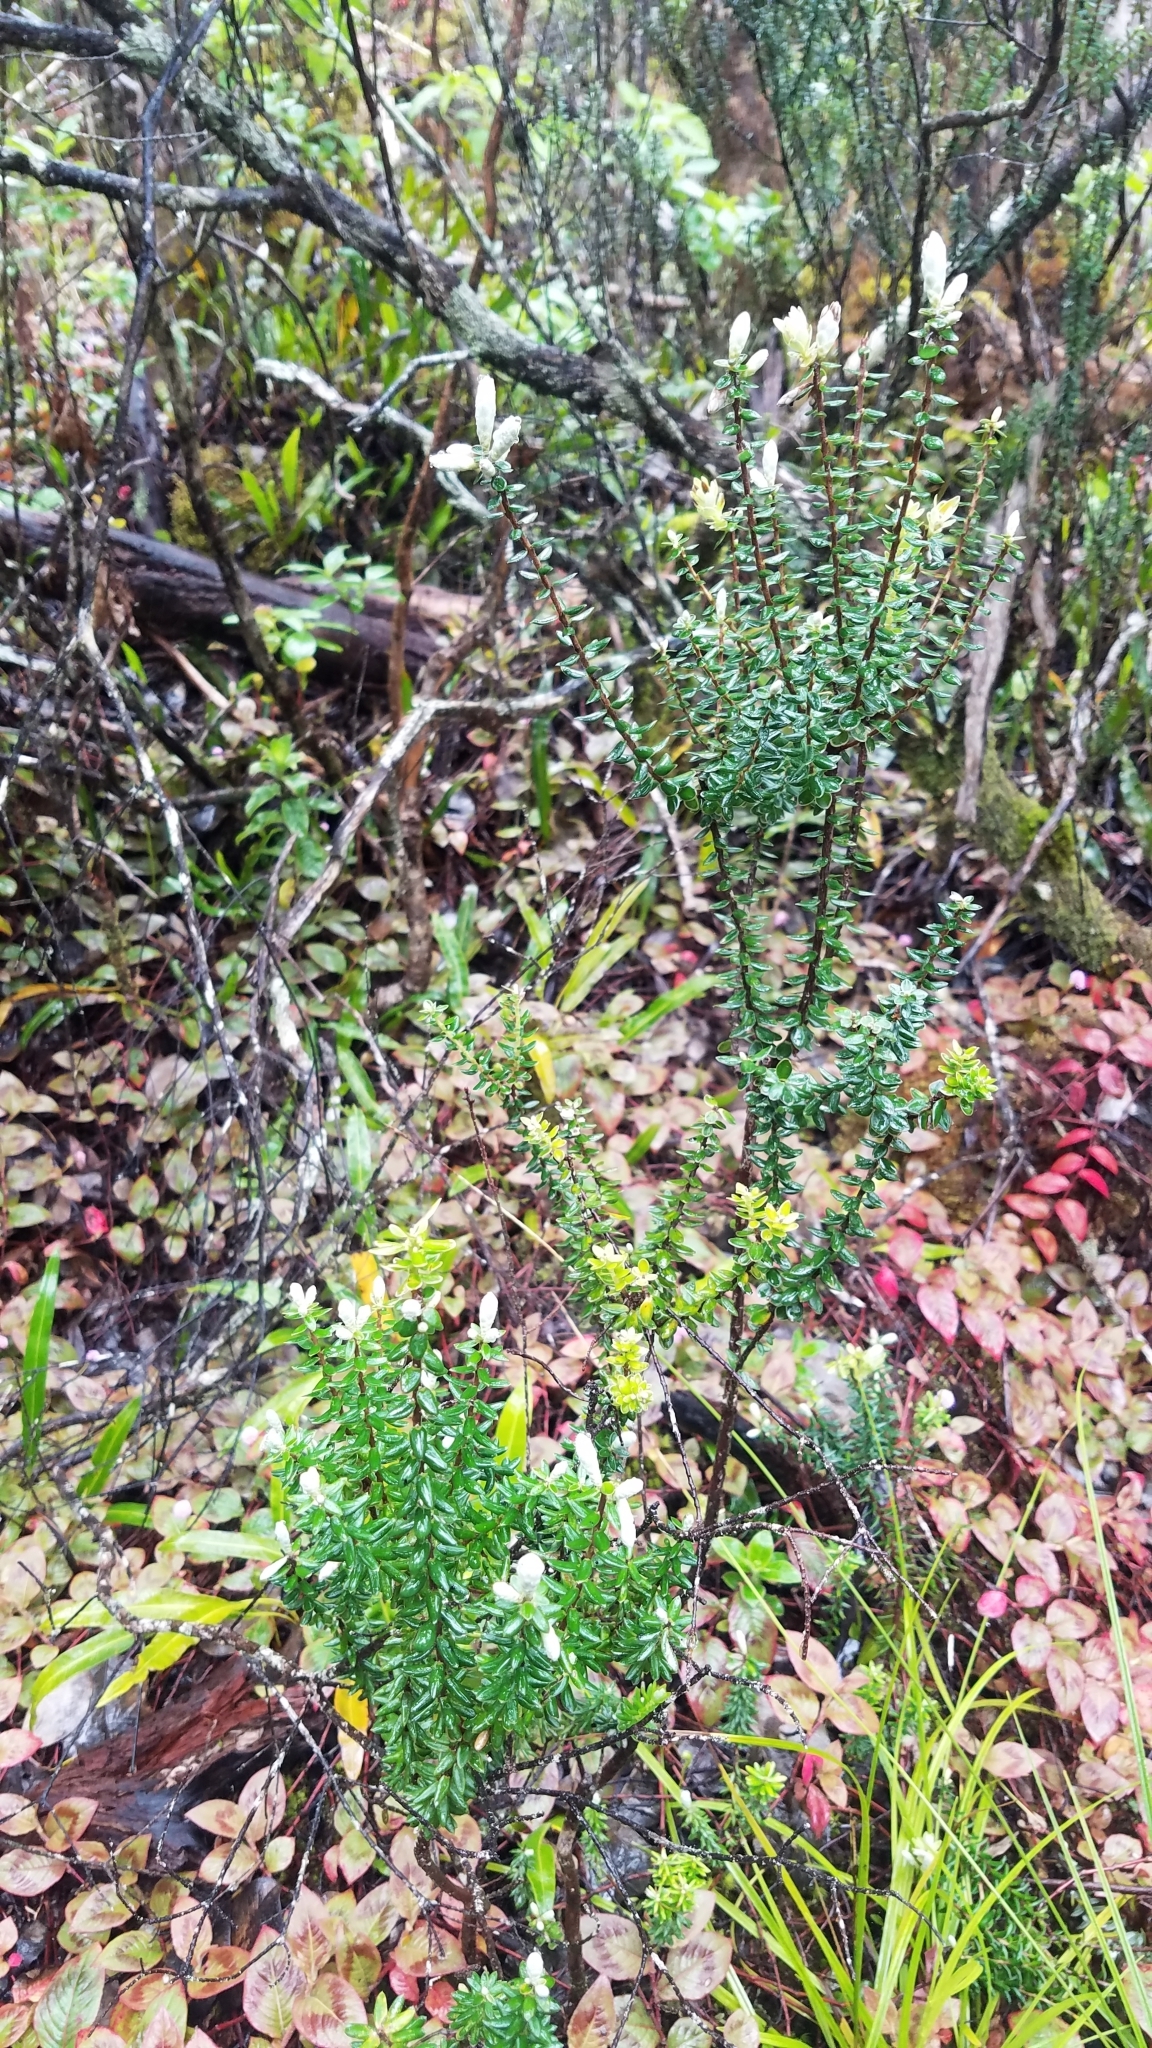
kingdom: Plantae
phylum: Tracheophyta
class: Magnoliopsida
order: Ericales
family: Ericaceae
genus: Leptecophylla
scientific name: Leptecophylla tameiameiae
